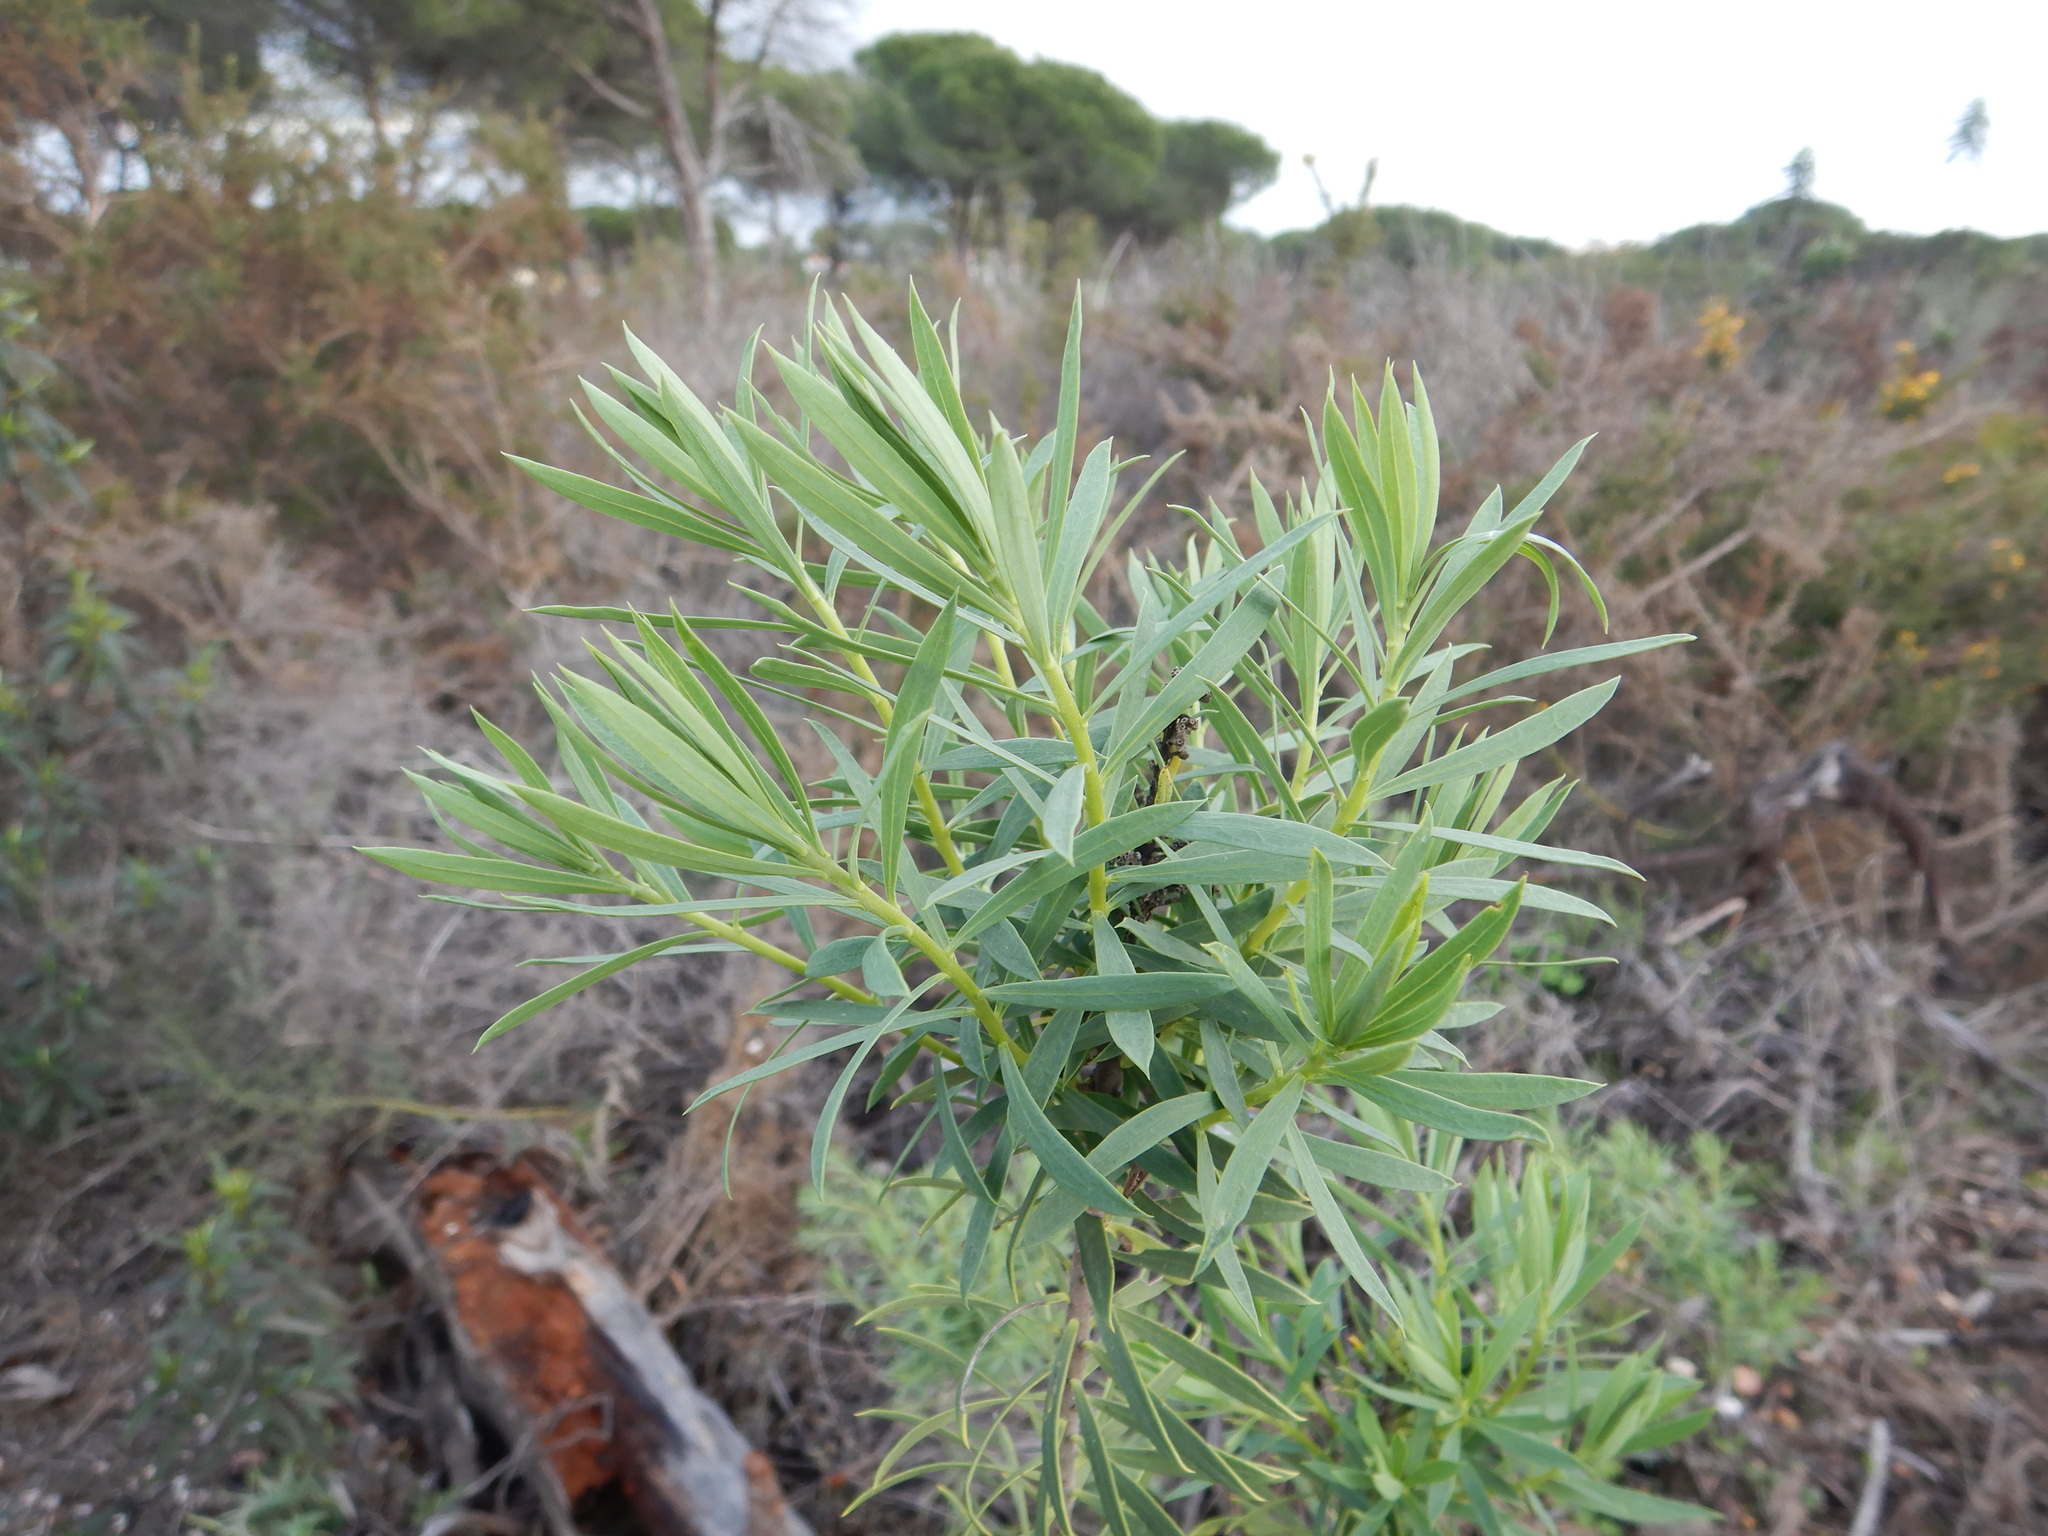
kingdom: Plantae
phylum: Tracheophyta
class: Magnoliopsida
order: Malvales
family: Thymelaeaceae
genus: Daphne
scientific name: Daphne gnidium
